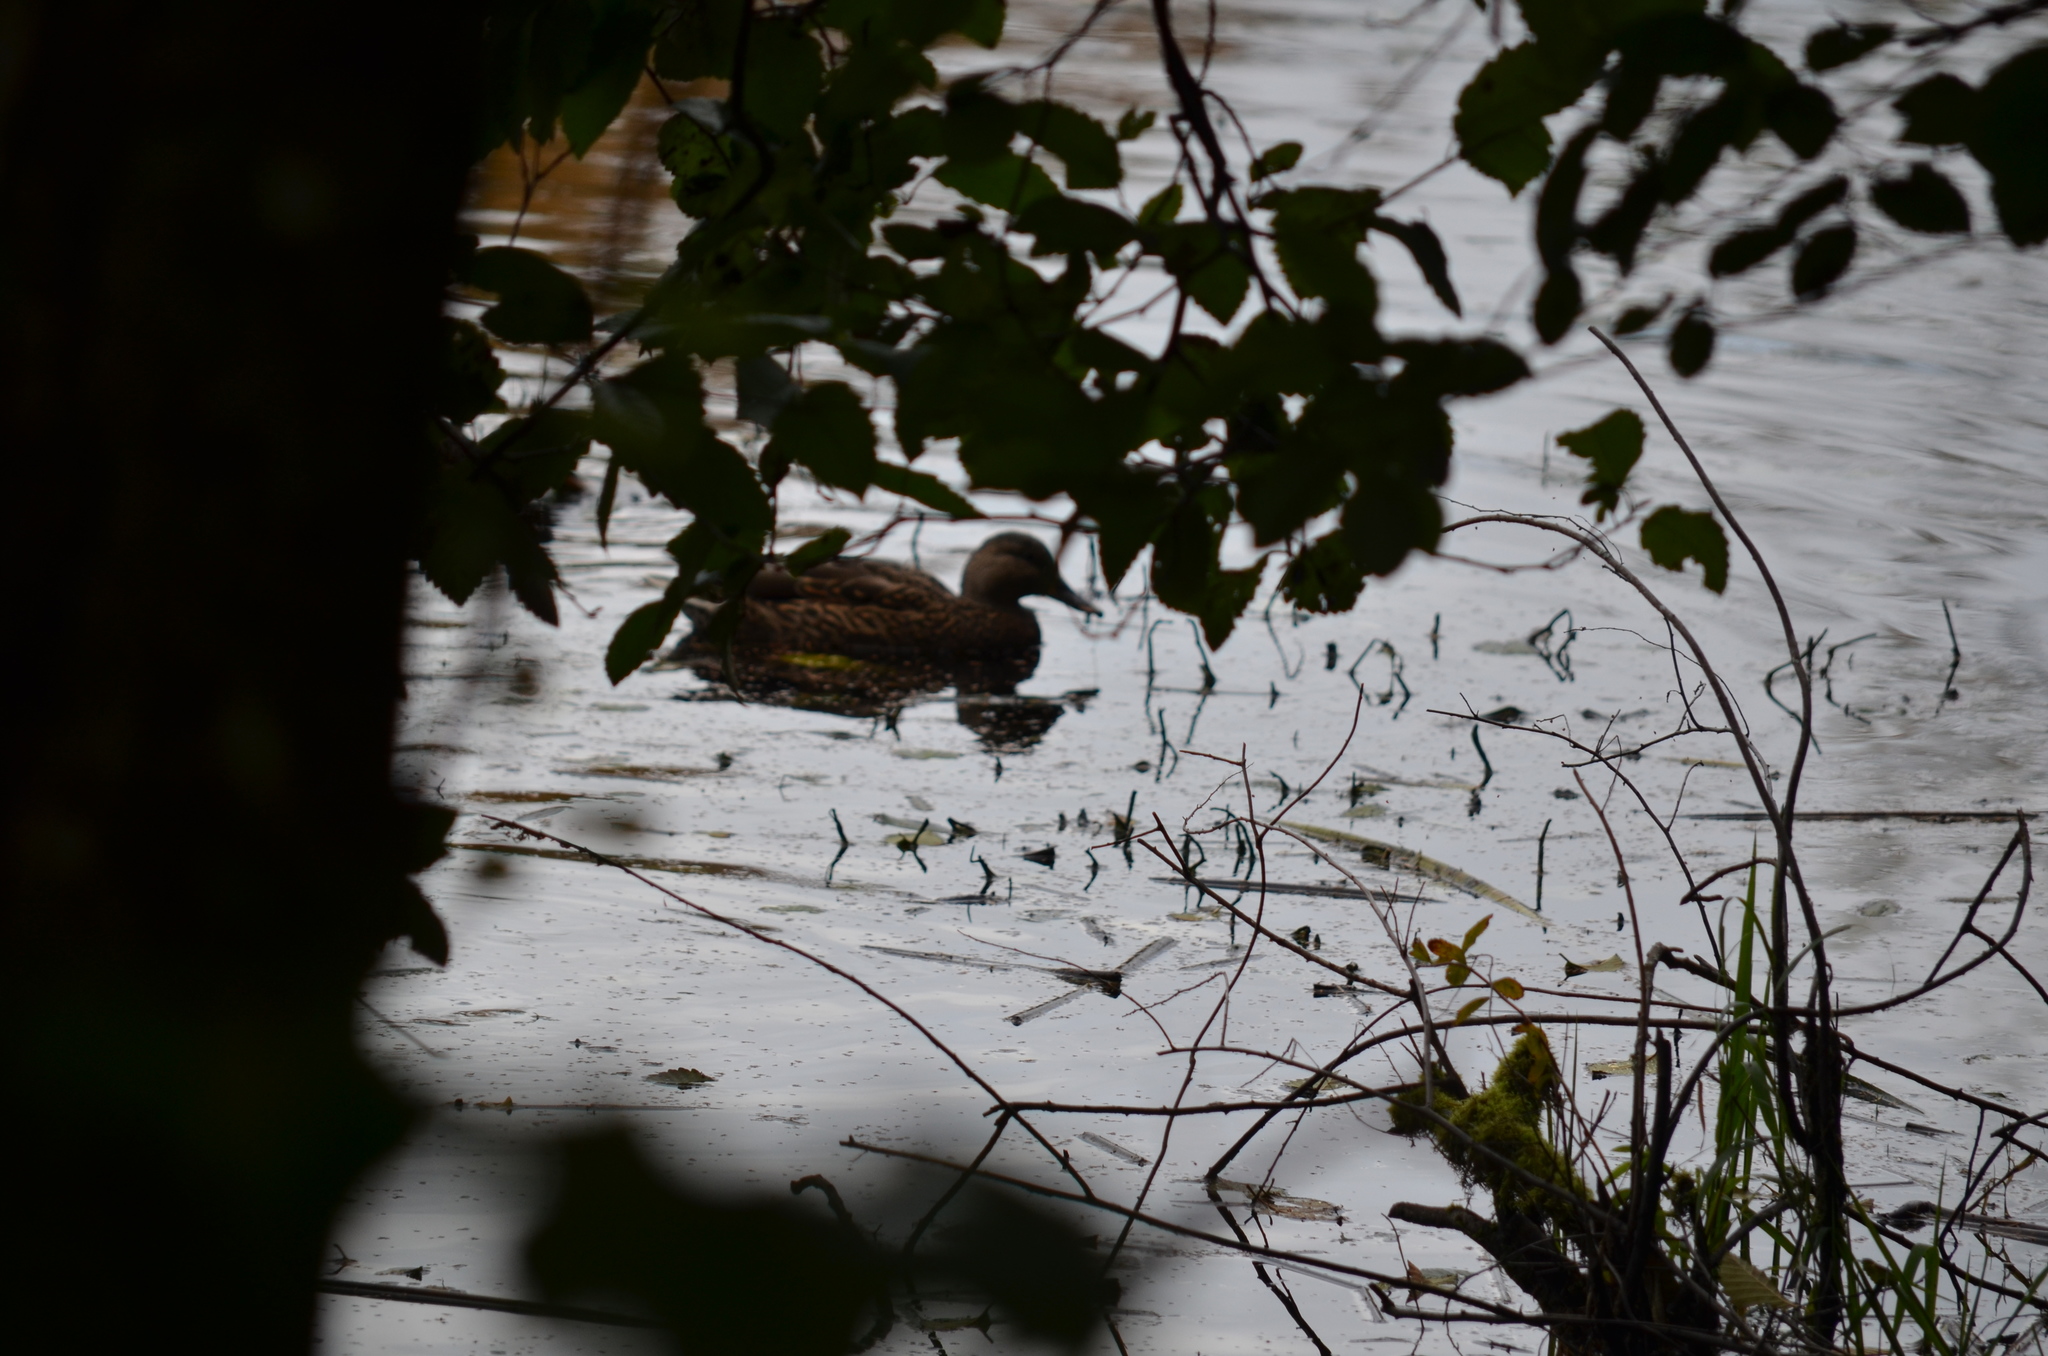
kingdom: Animalia
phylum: Chordata
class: Aves
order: Anseriformes
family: Anatidae
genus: Anas
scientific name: Anas platyrhynchos
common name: Mallard
